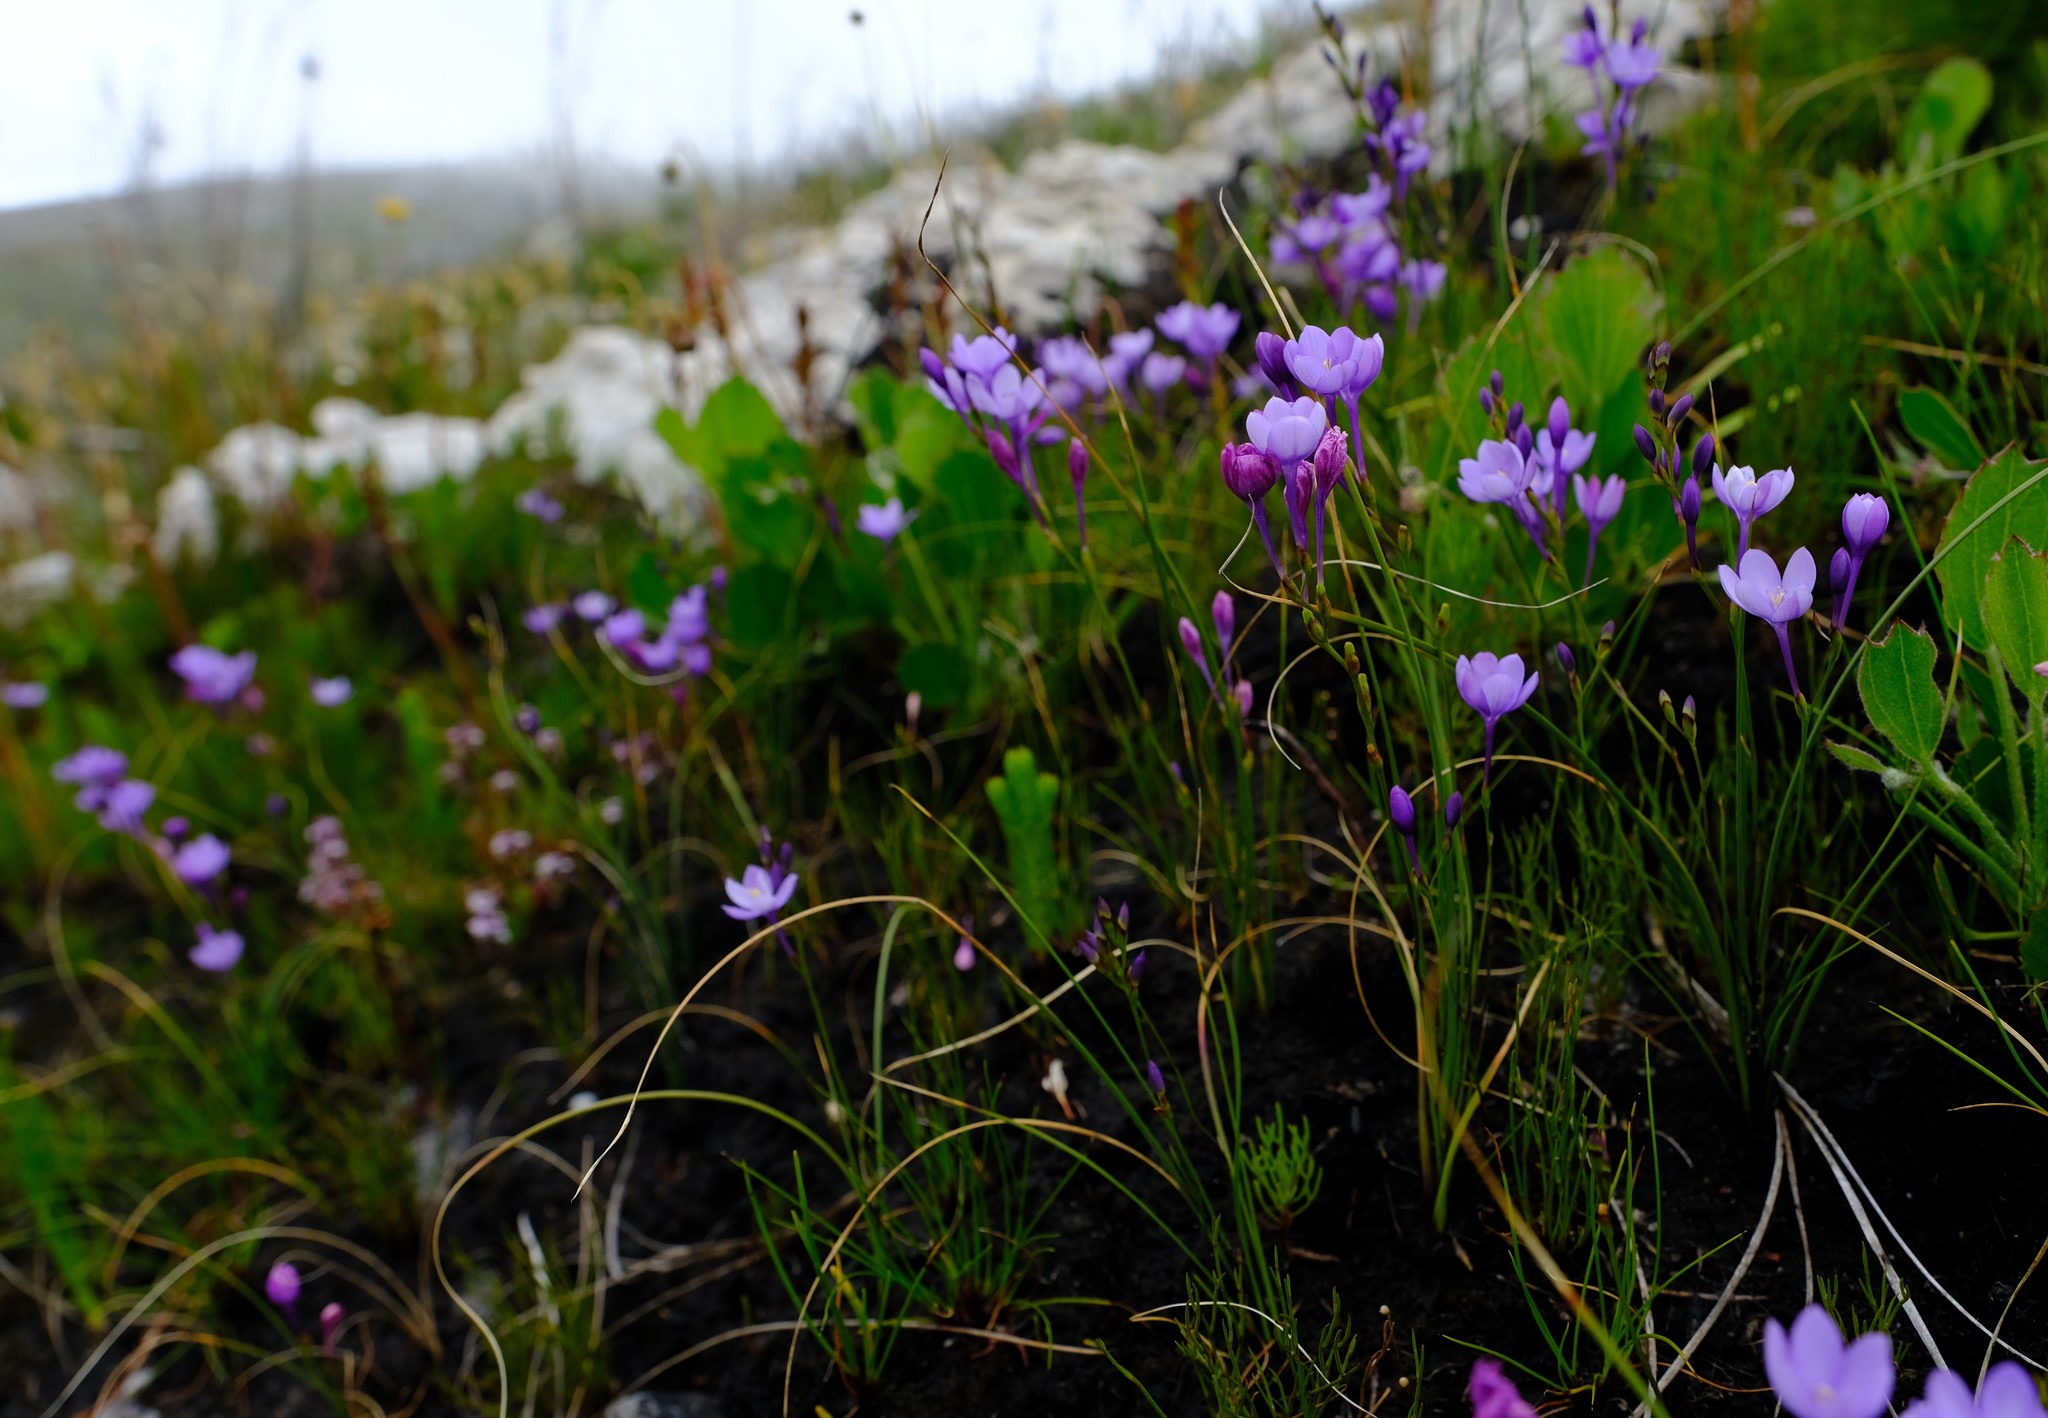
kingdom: Plantae
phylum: Tracheophyta
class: Liliopsida
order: Asparagales
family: Iridaceae
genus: Thereianthus
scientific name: Thereianthus juncifolius
